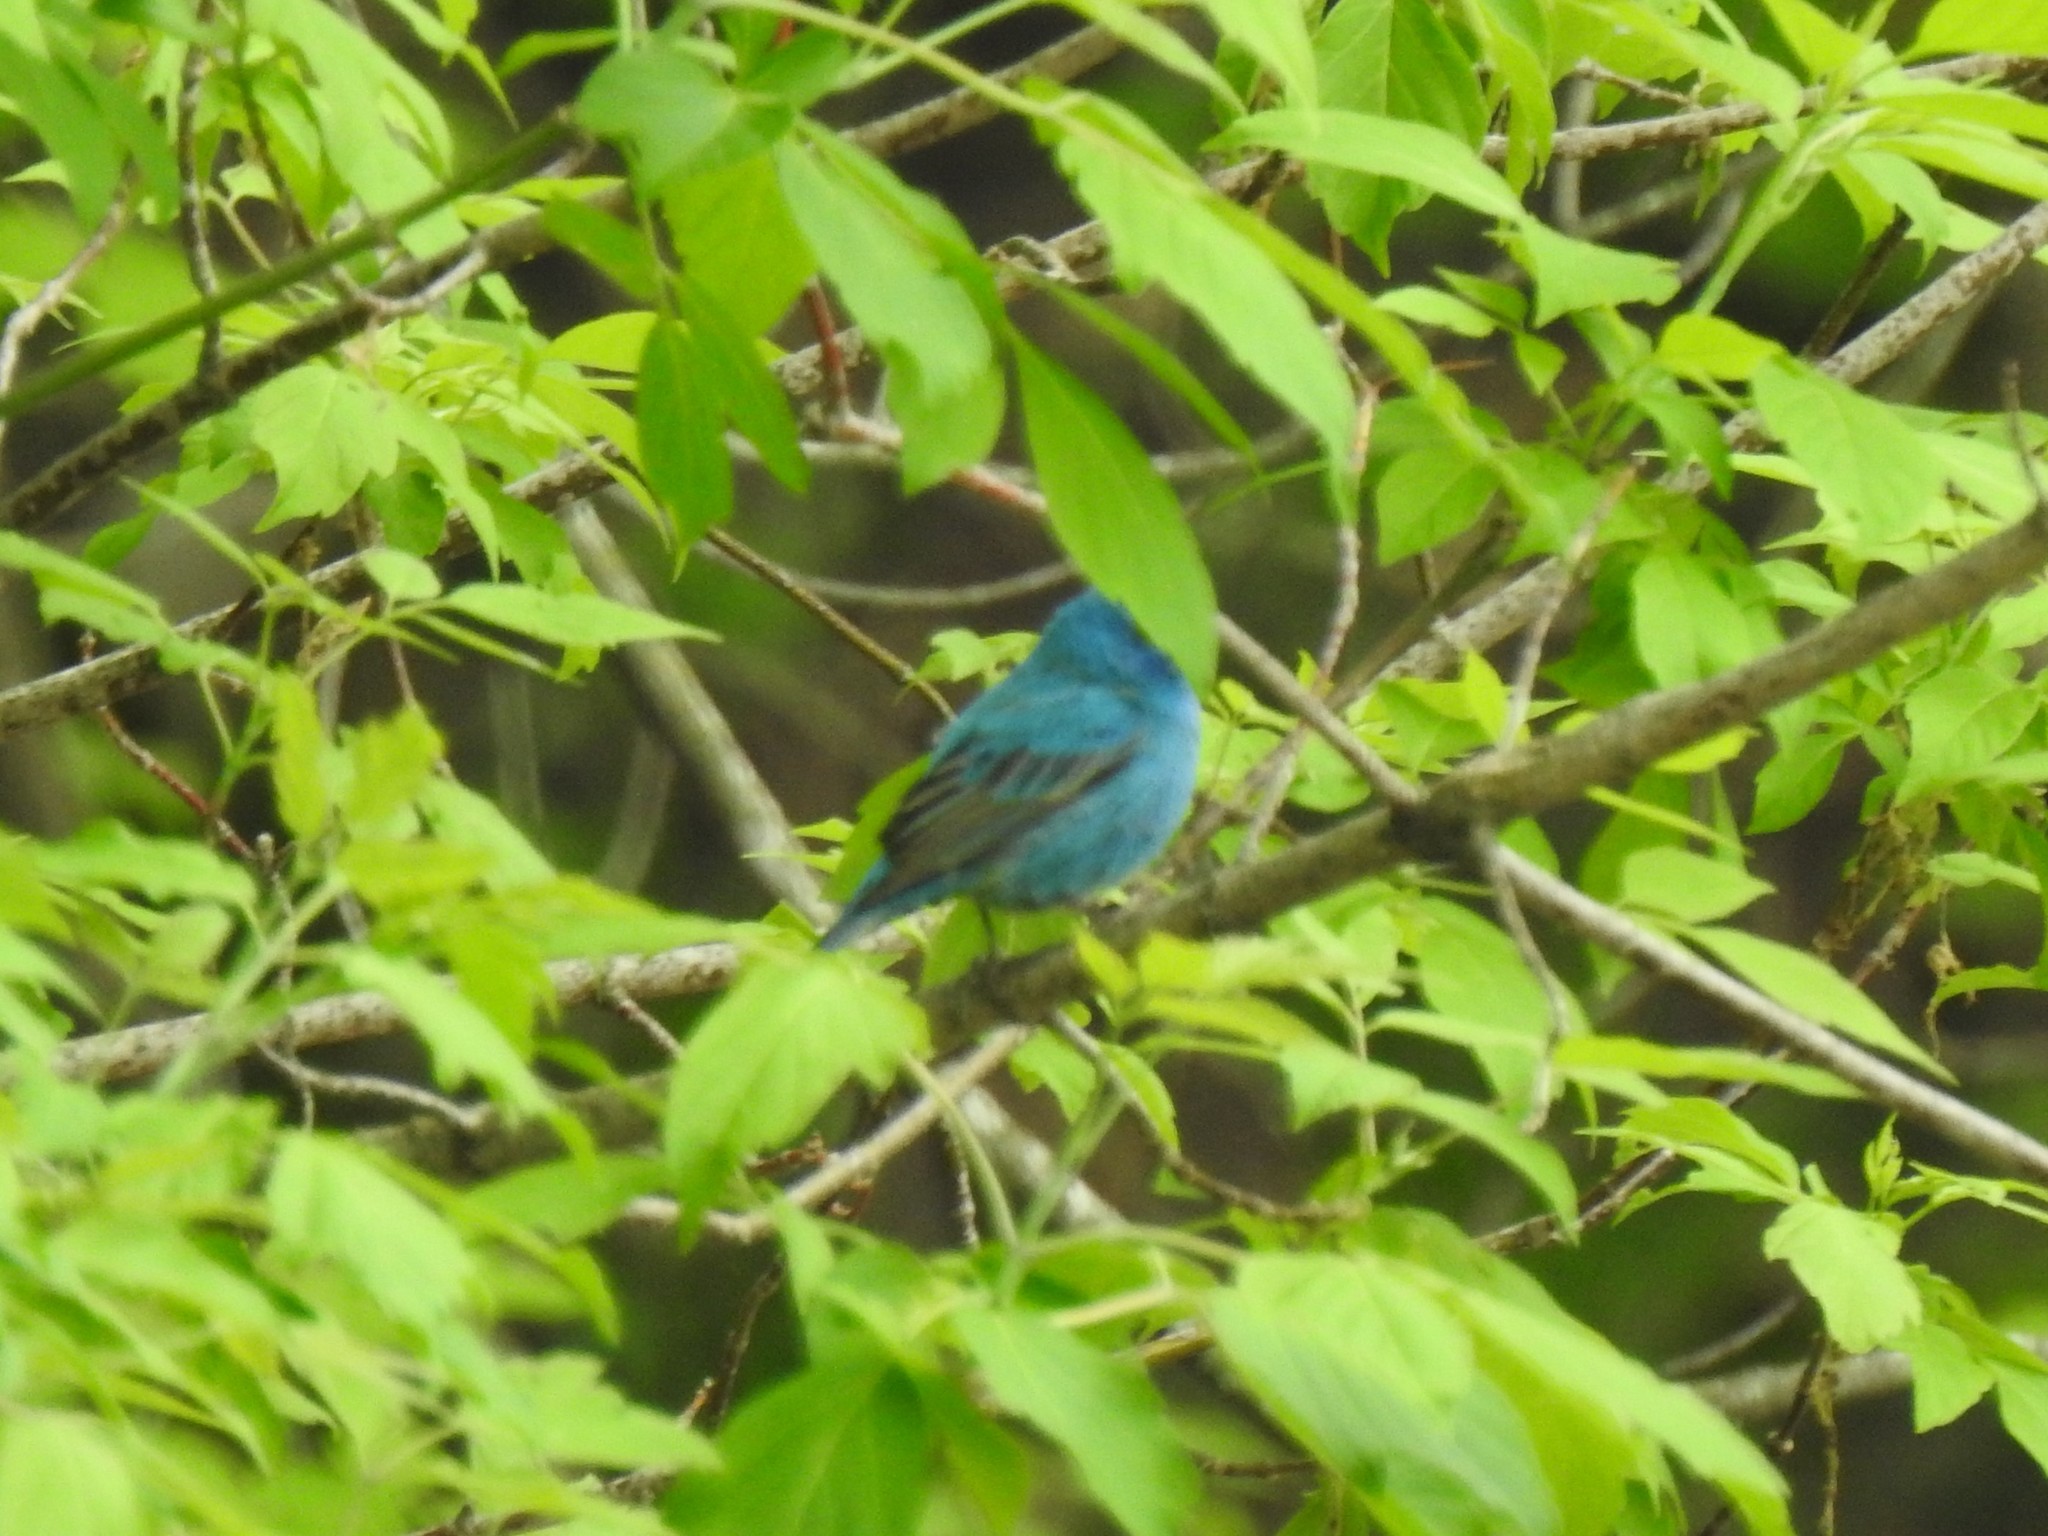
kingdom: Animalia
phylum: Chordata
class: Aves
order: Passeriformes
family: Cardinalidae
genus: Passerina
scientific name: Passerina cyanea
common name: Indigo bunting
